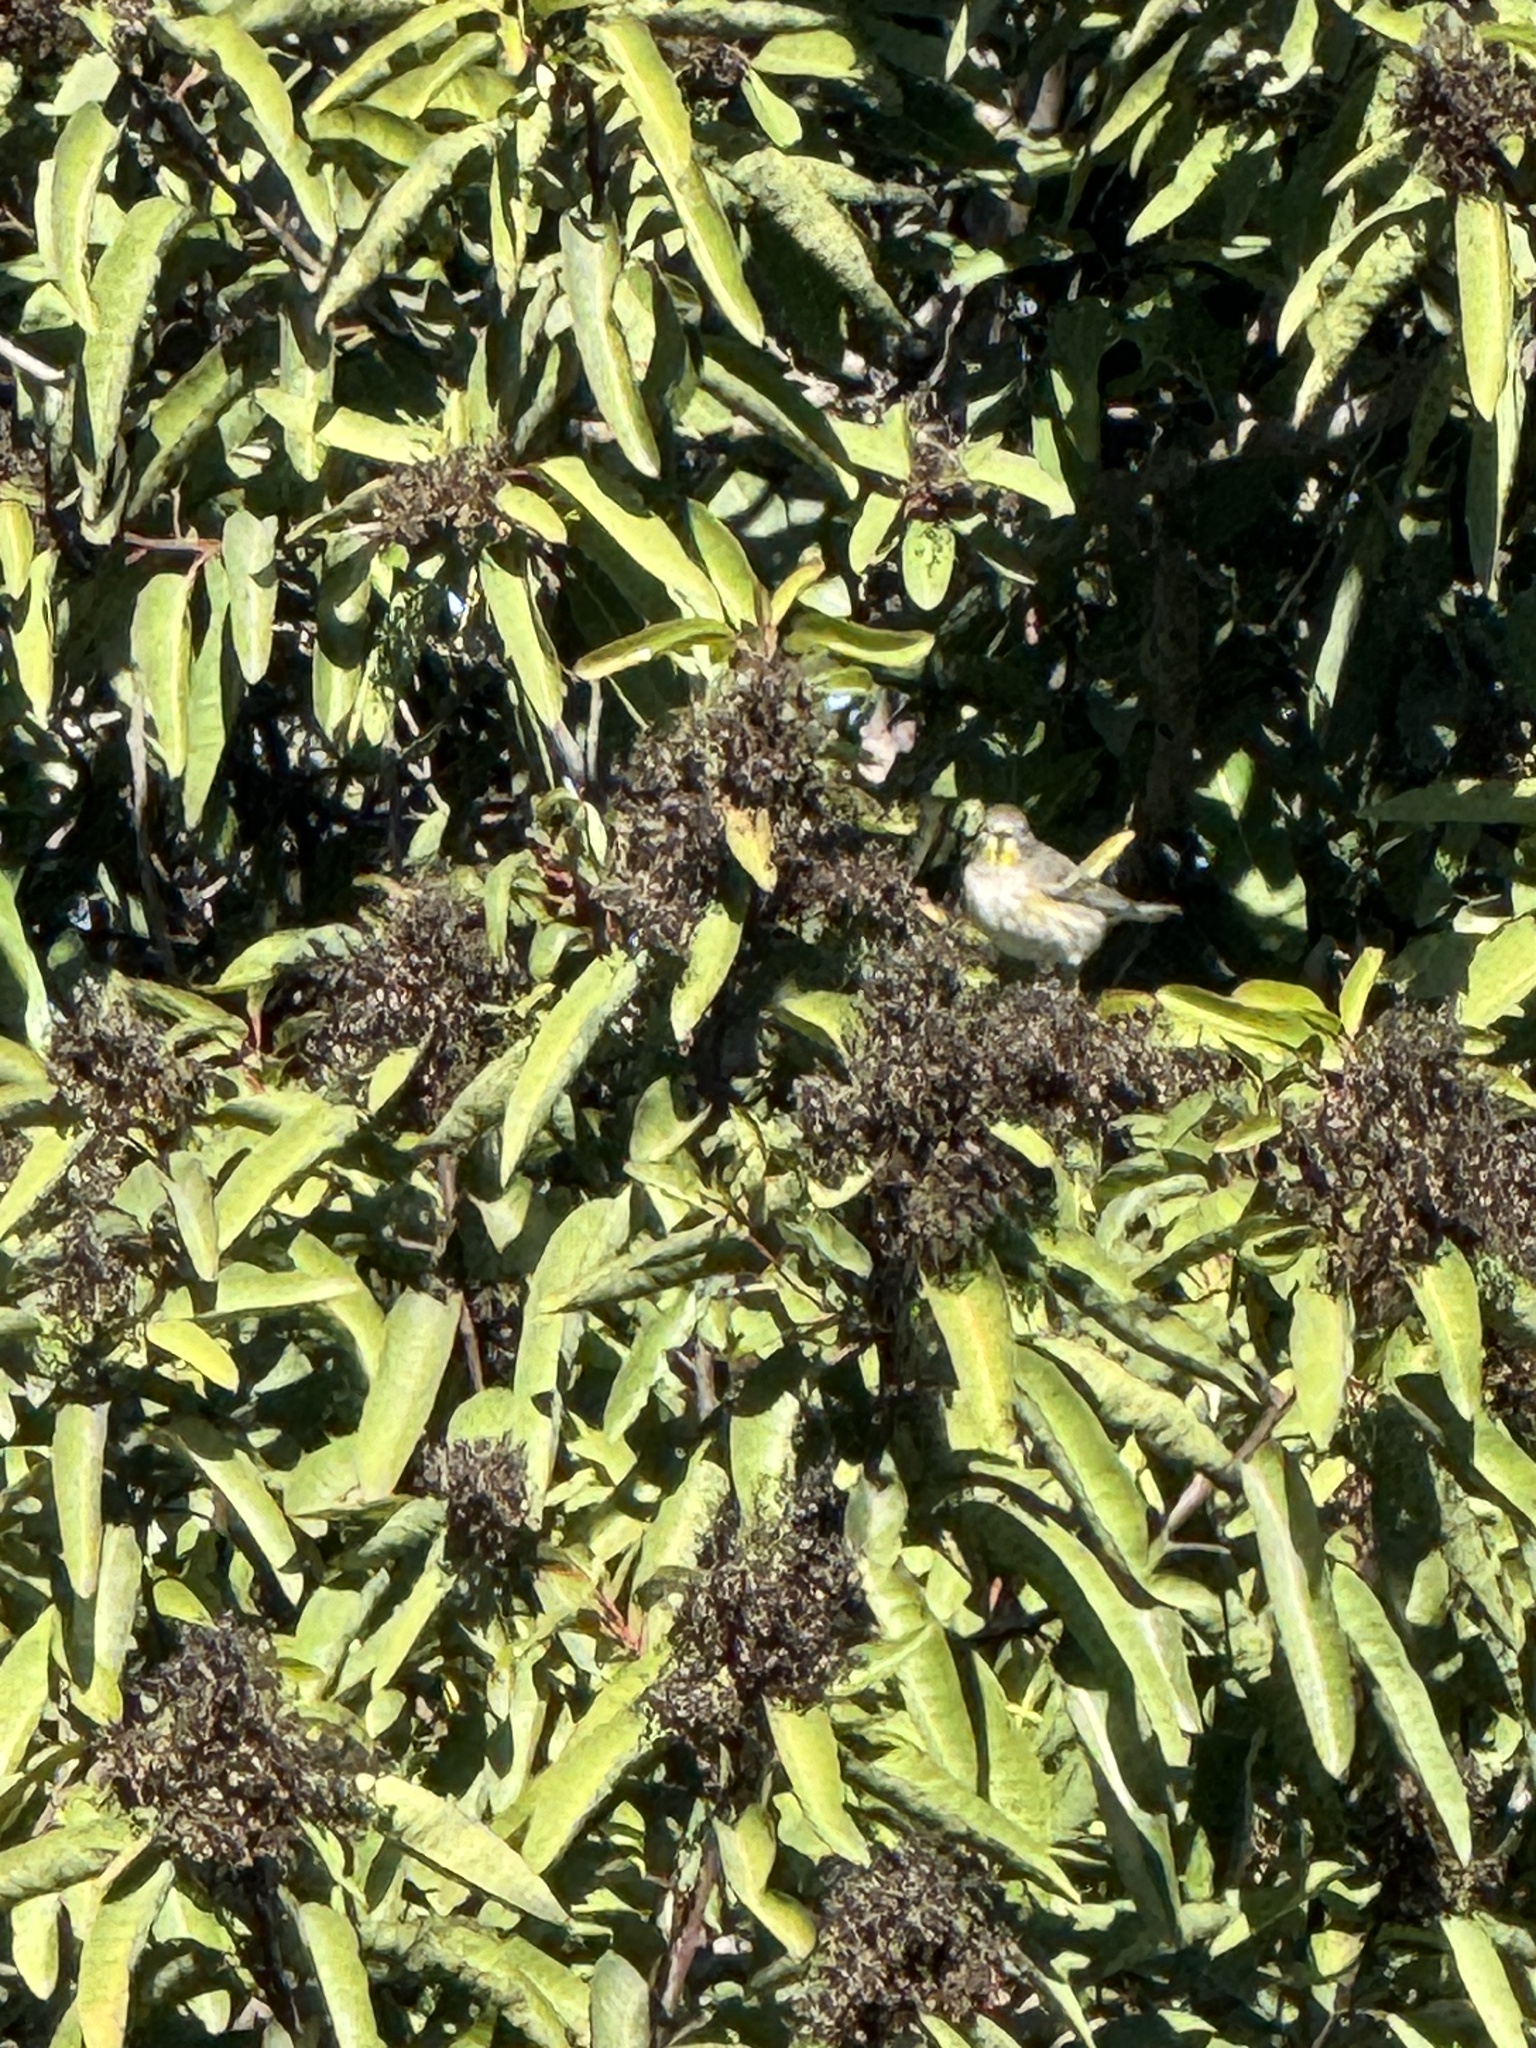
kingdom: Animalia
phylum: Chordata
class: Aves
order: Passeriformes
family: Parulidae
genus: Setophaga
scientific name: Setophaga coronata
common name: Myrtle warbler
